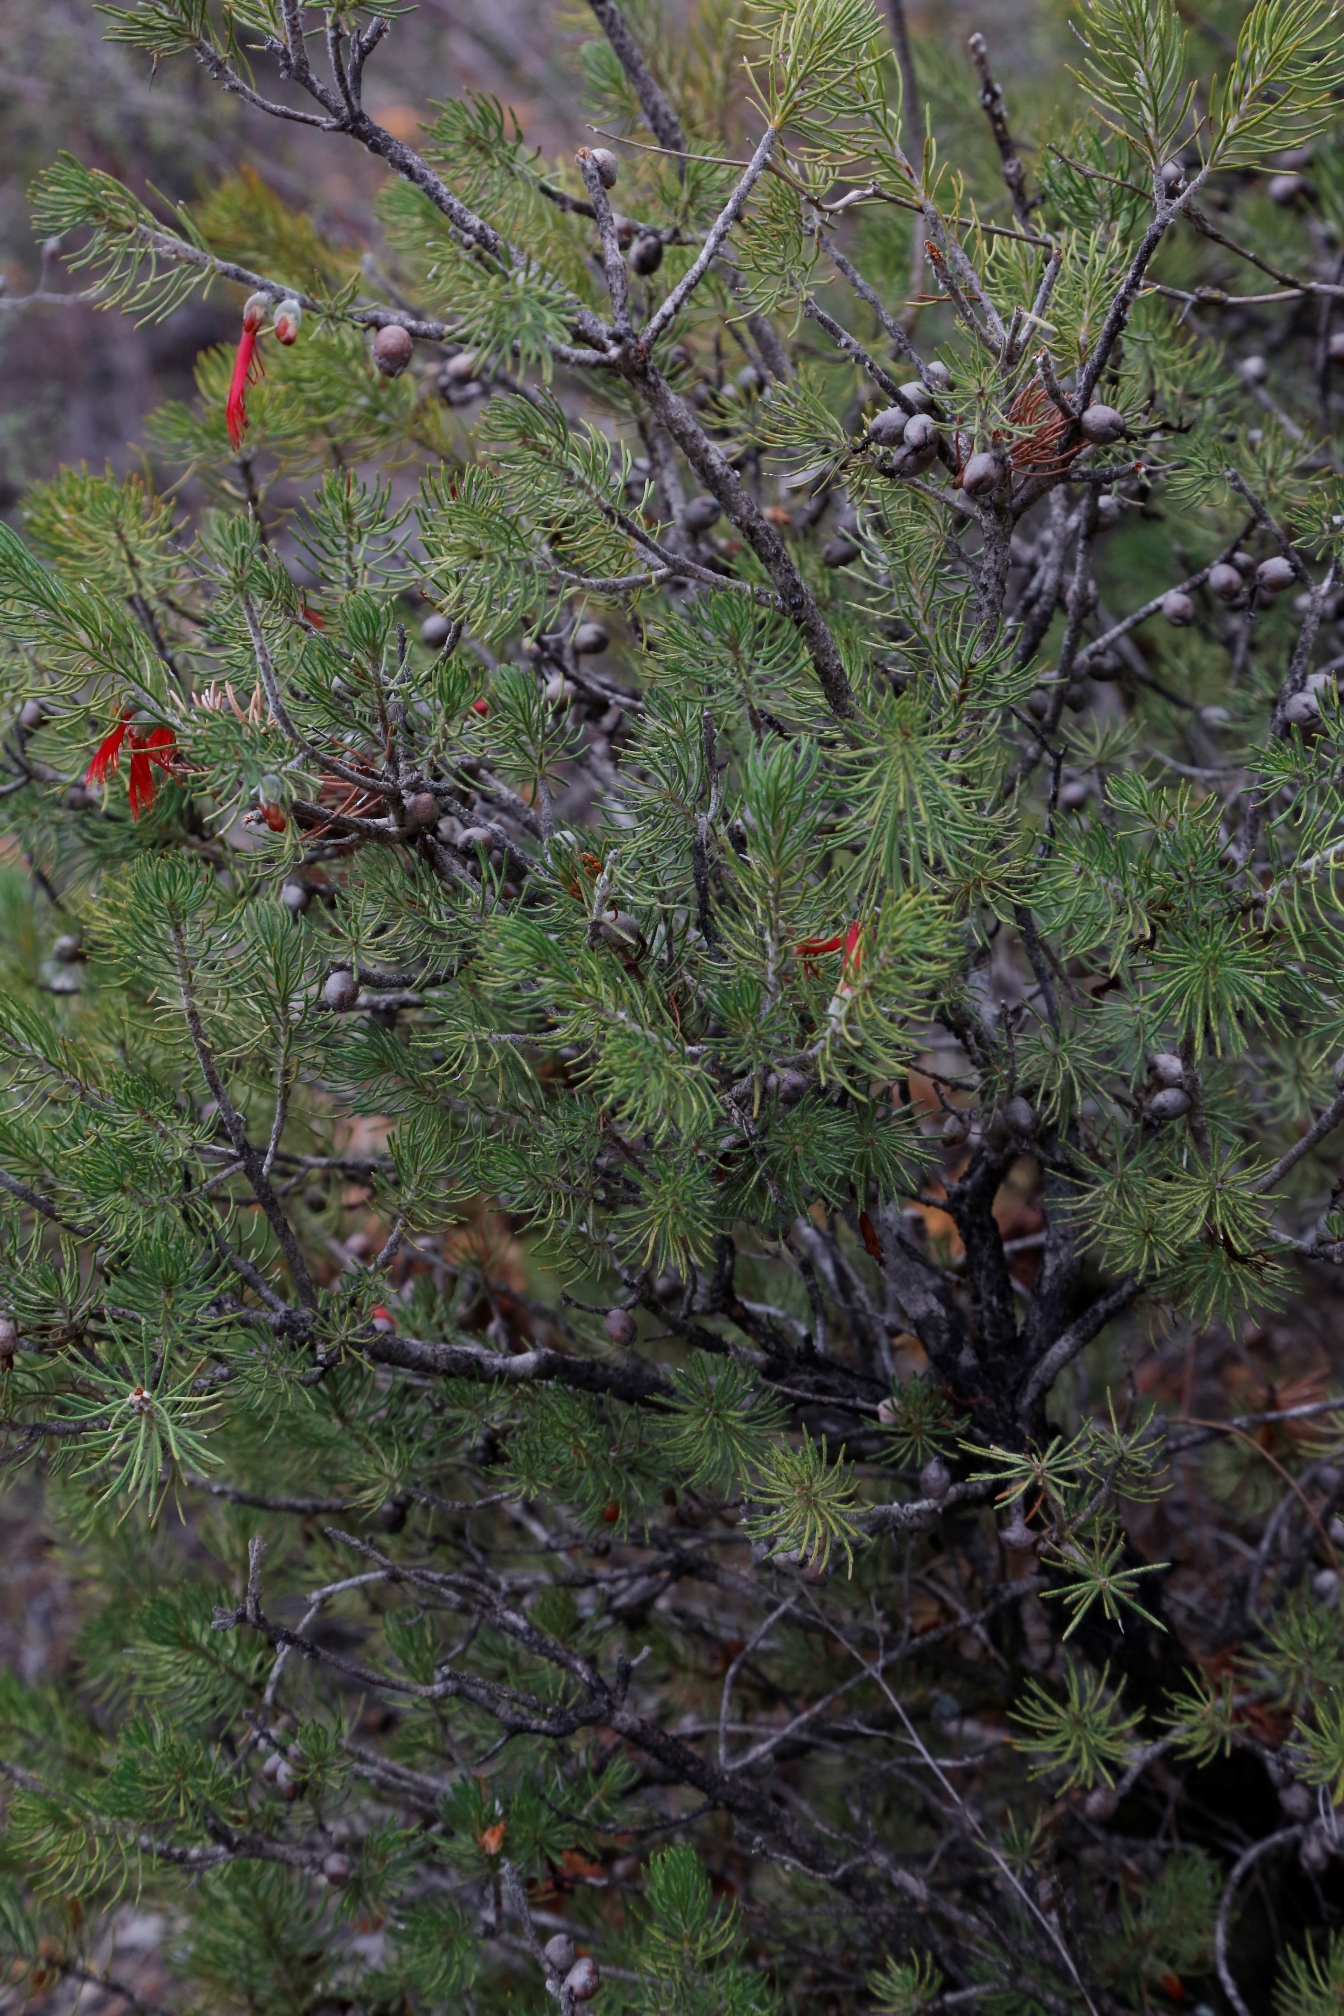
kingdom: Plantae
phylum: Tracheophyta
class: Magnoliopsida
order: Myrtales
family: Myrtaceae
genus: Melaleuca
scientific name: Melaleuca cruenta
